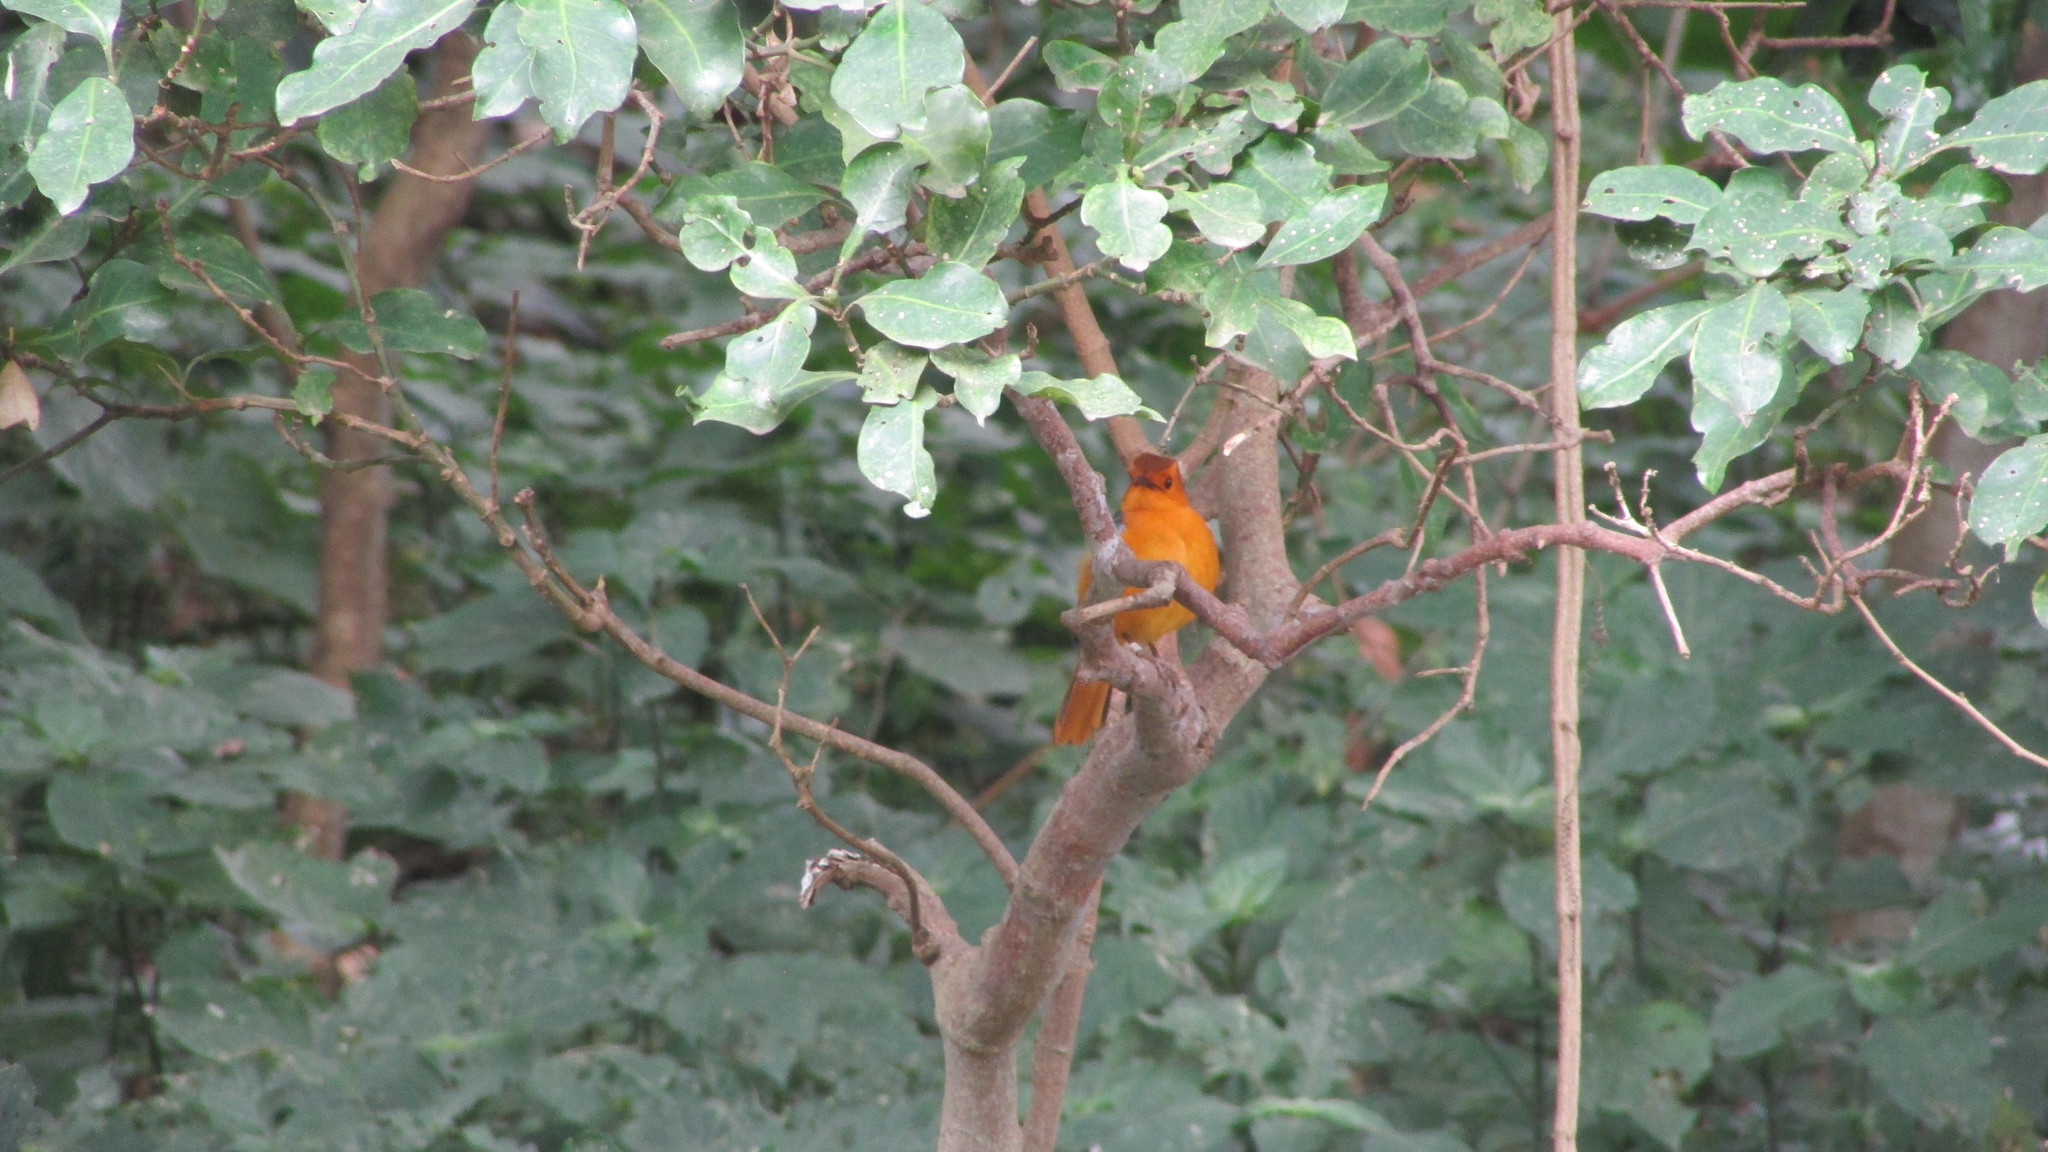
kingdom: Animalia
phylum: Chordata
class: Aves
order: Passeriformes
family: Muscicapidae
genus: Cossypha
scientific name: Cossypha natalensis
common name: Red-capped robin-chat
